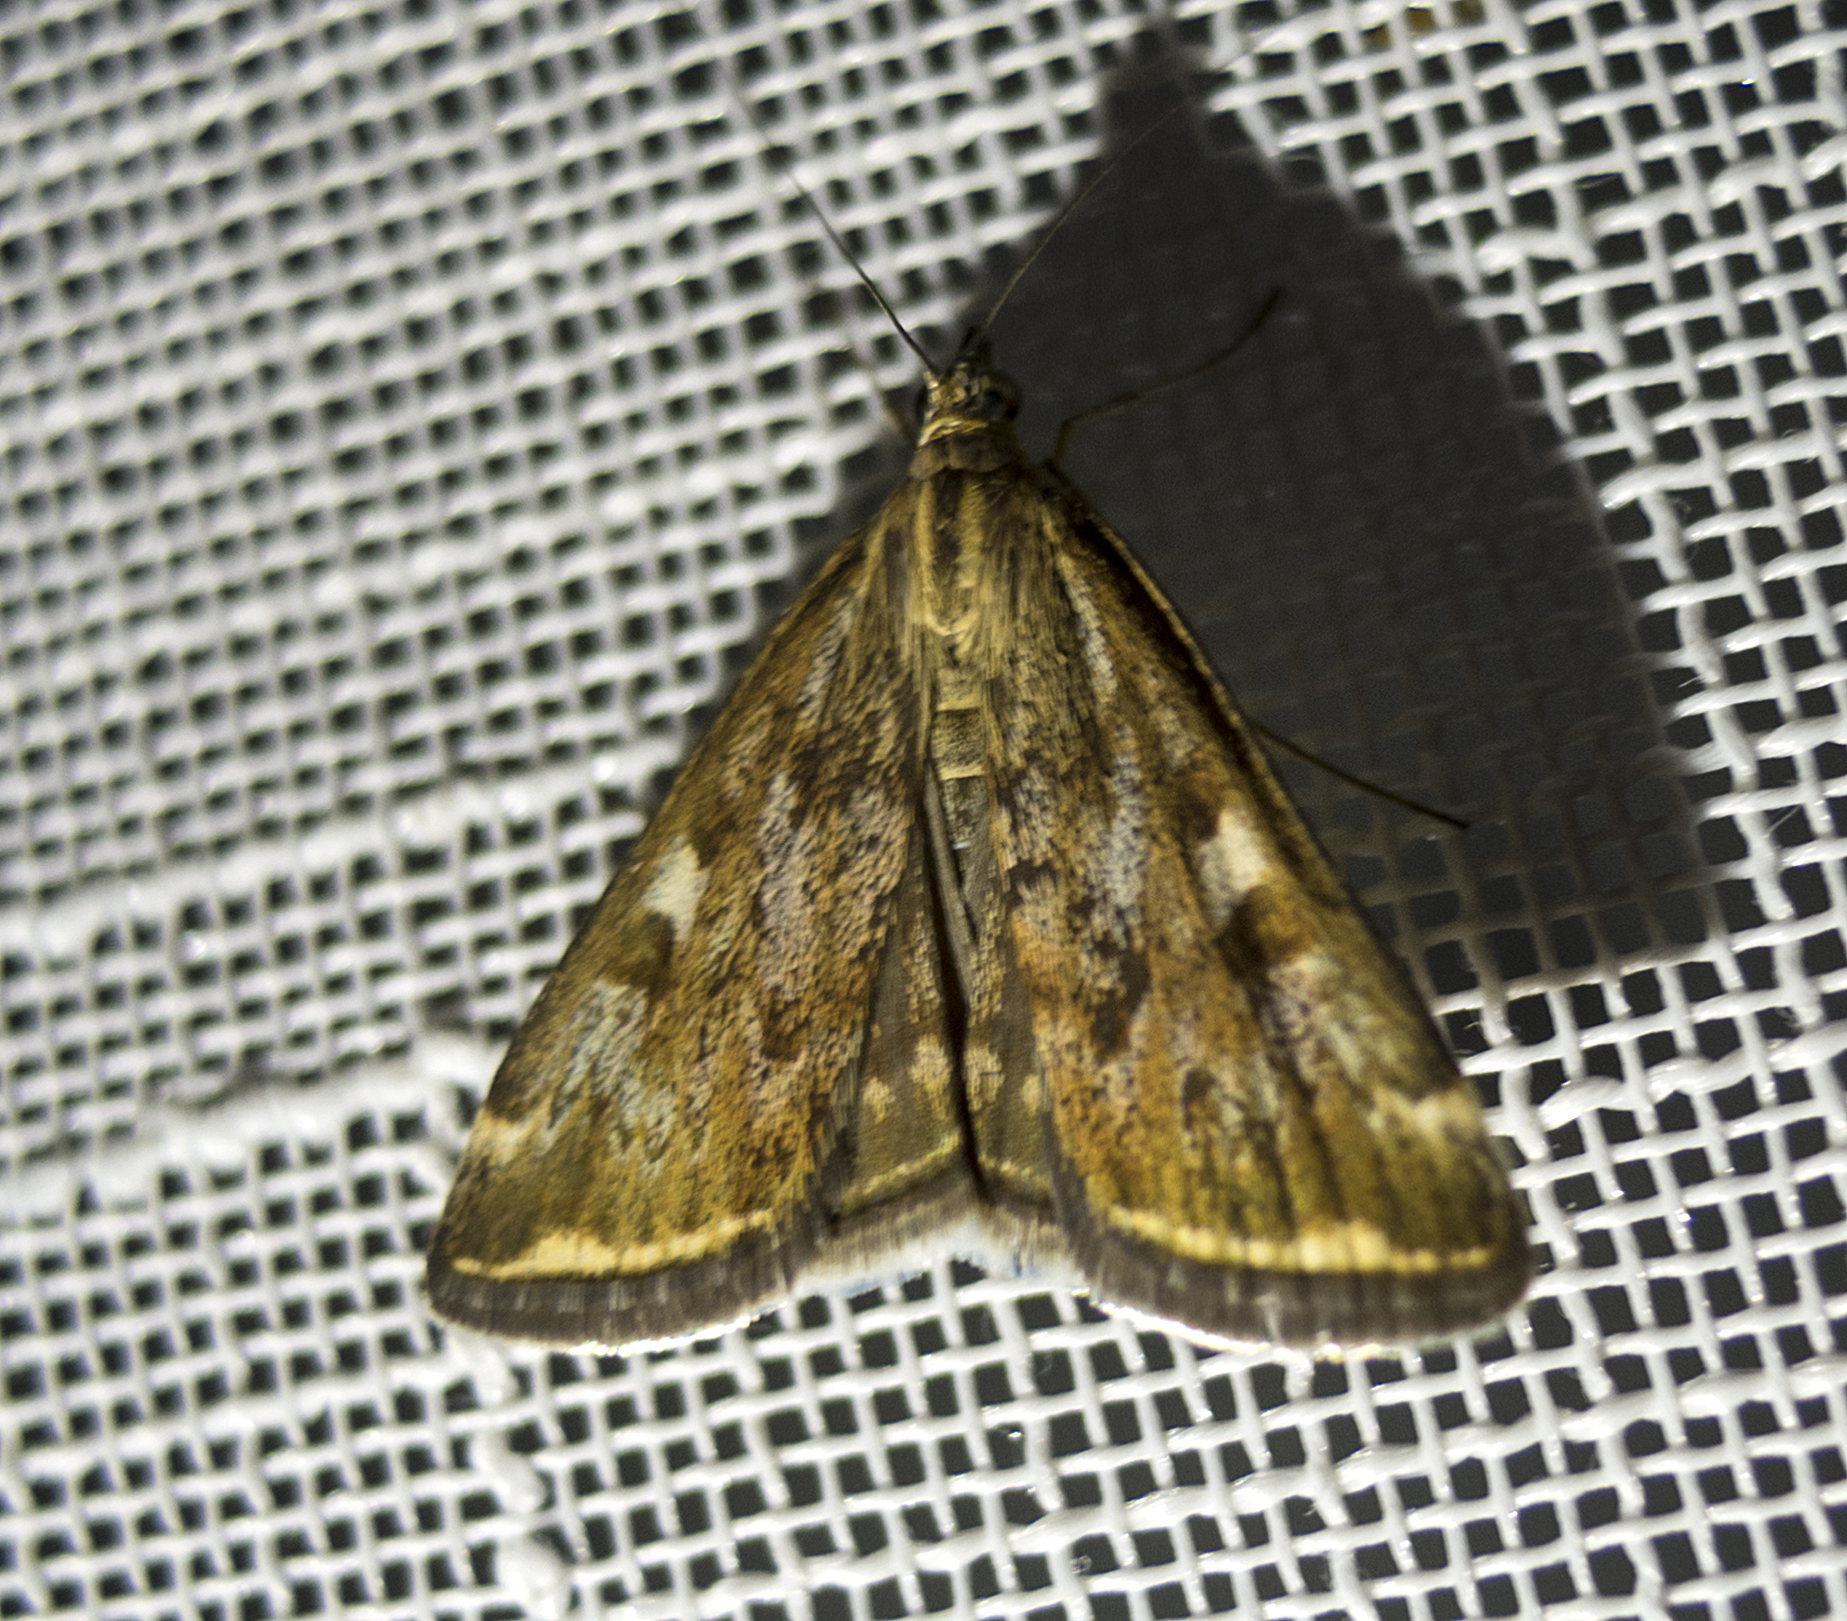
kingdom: Animalia
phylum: Arthropoda
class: Insecta
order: Lepidoptera
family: Crambidae
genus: Loxostege
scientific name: Loxostege sticticalis
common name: Crambid moth
